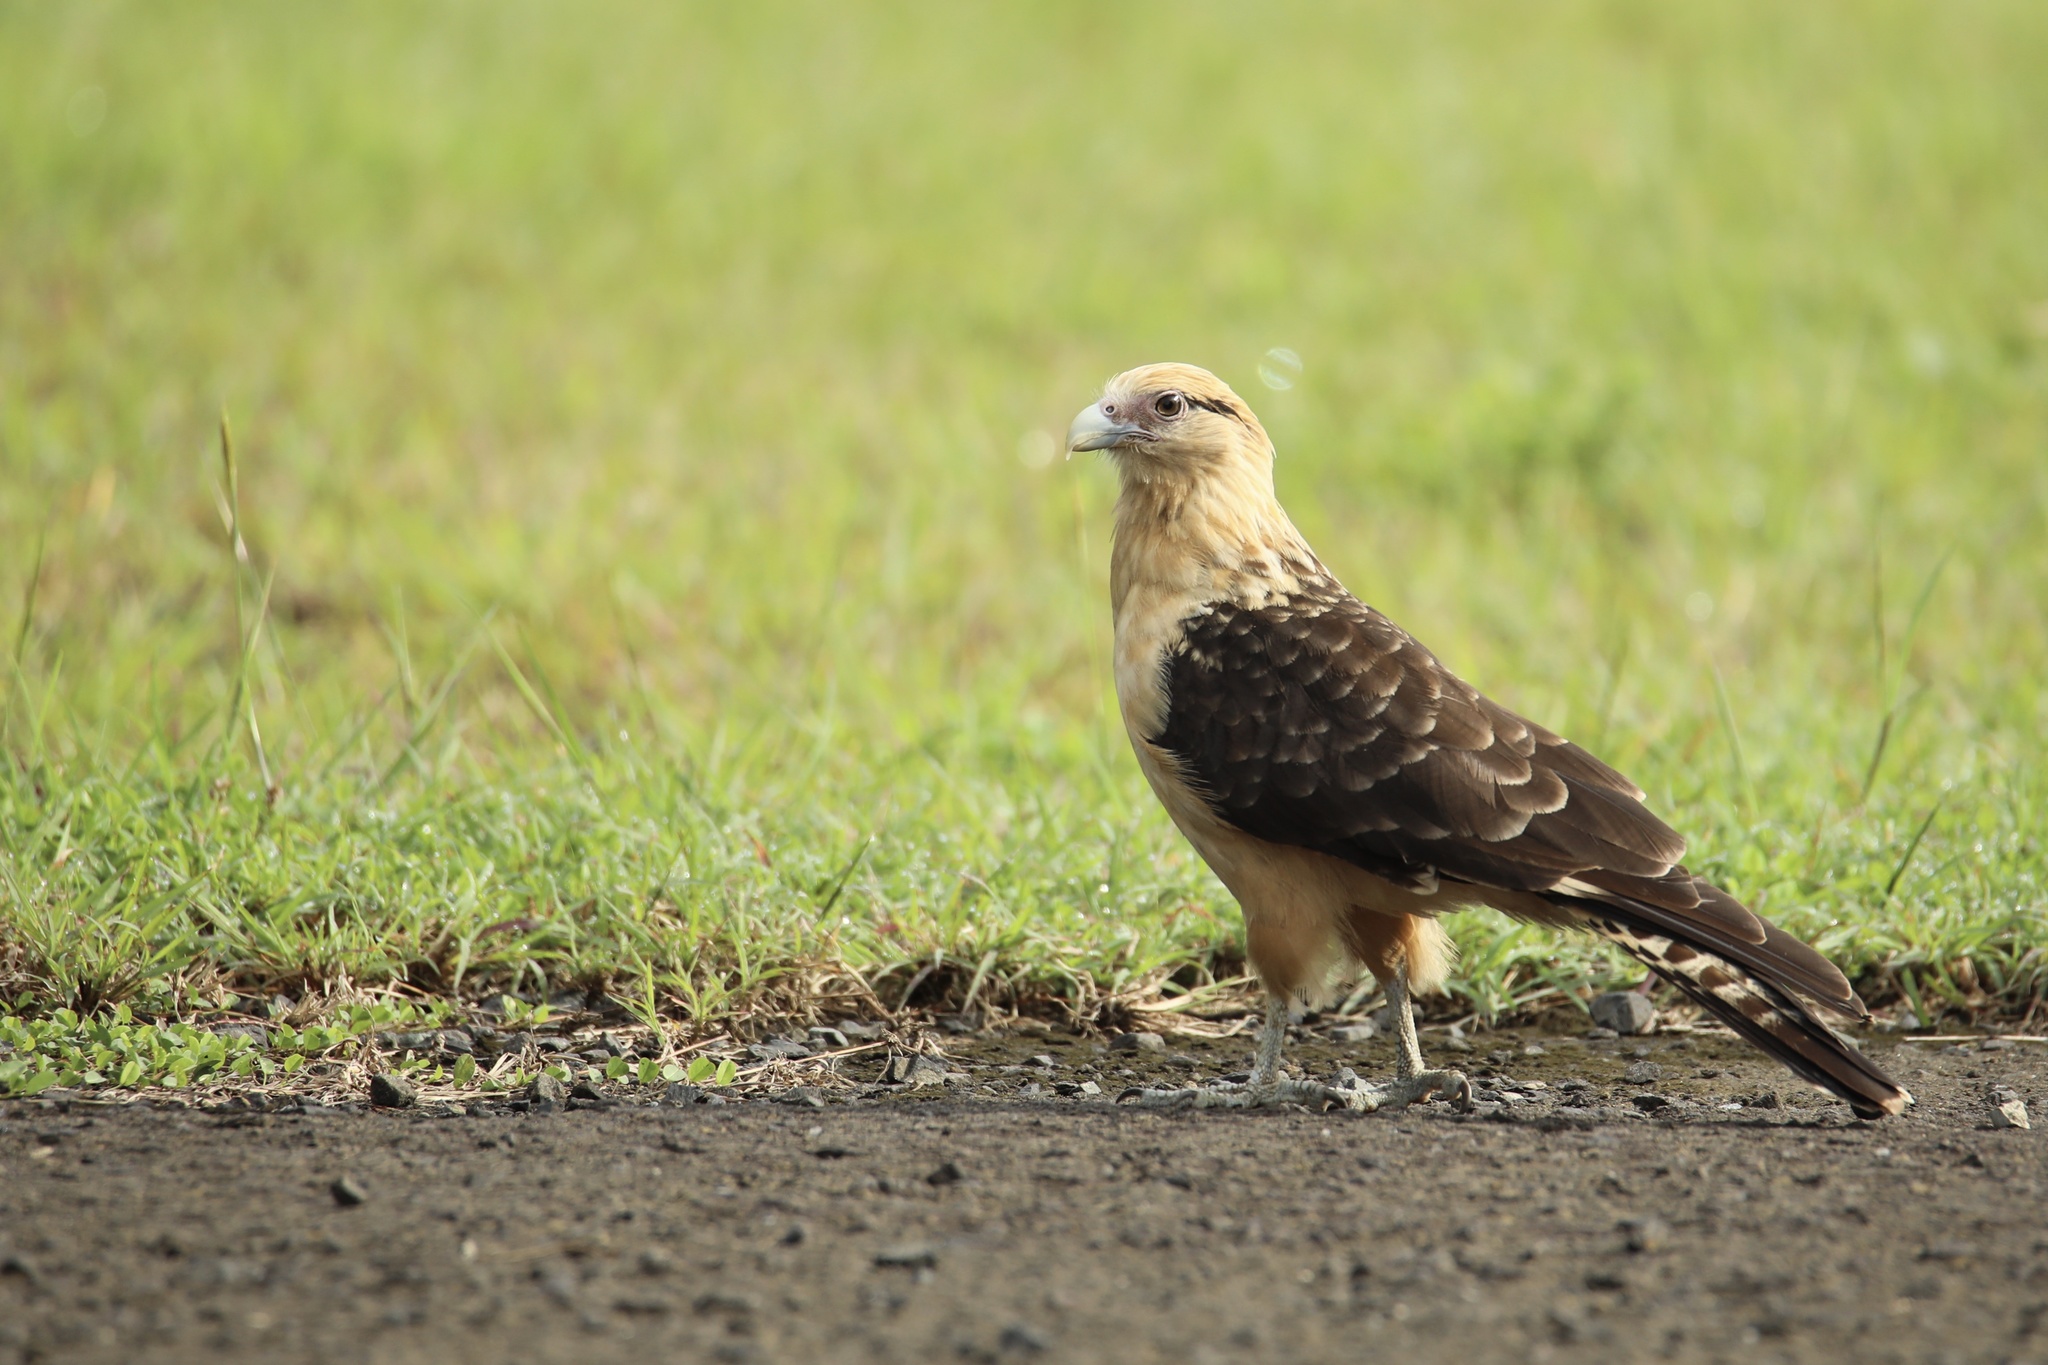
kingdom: Animalia
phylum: Chordata
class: Aves
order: Falconiformes
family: Falconidae
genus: Daptrius
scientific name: Daptrius
